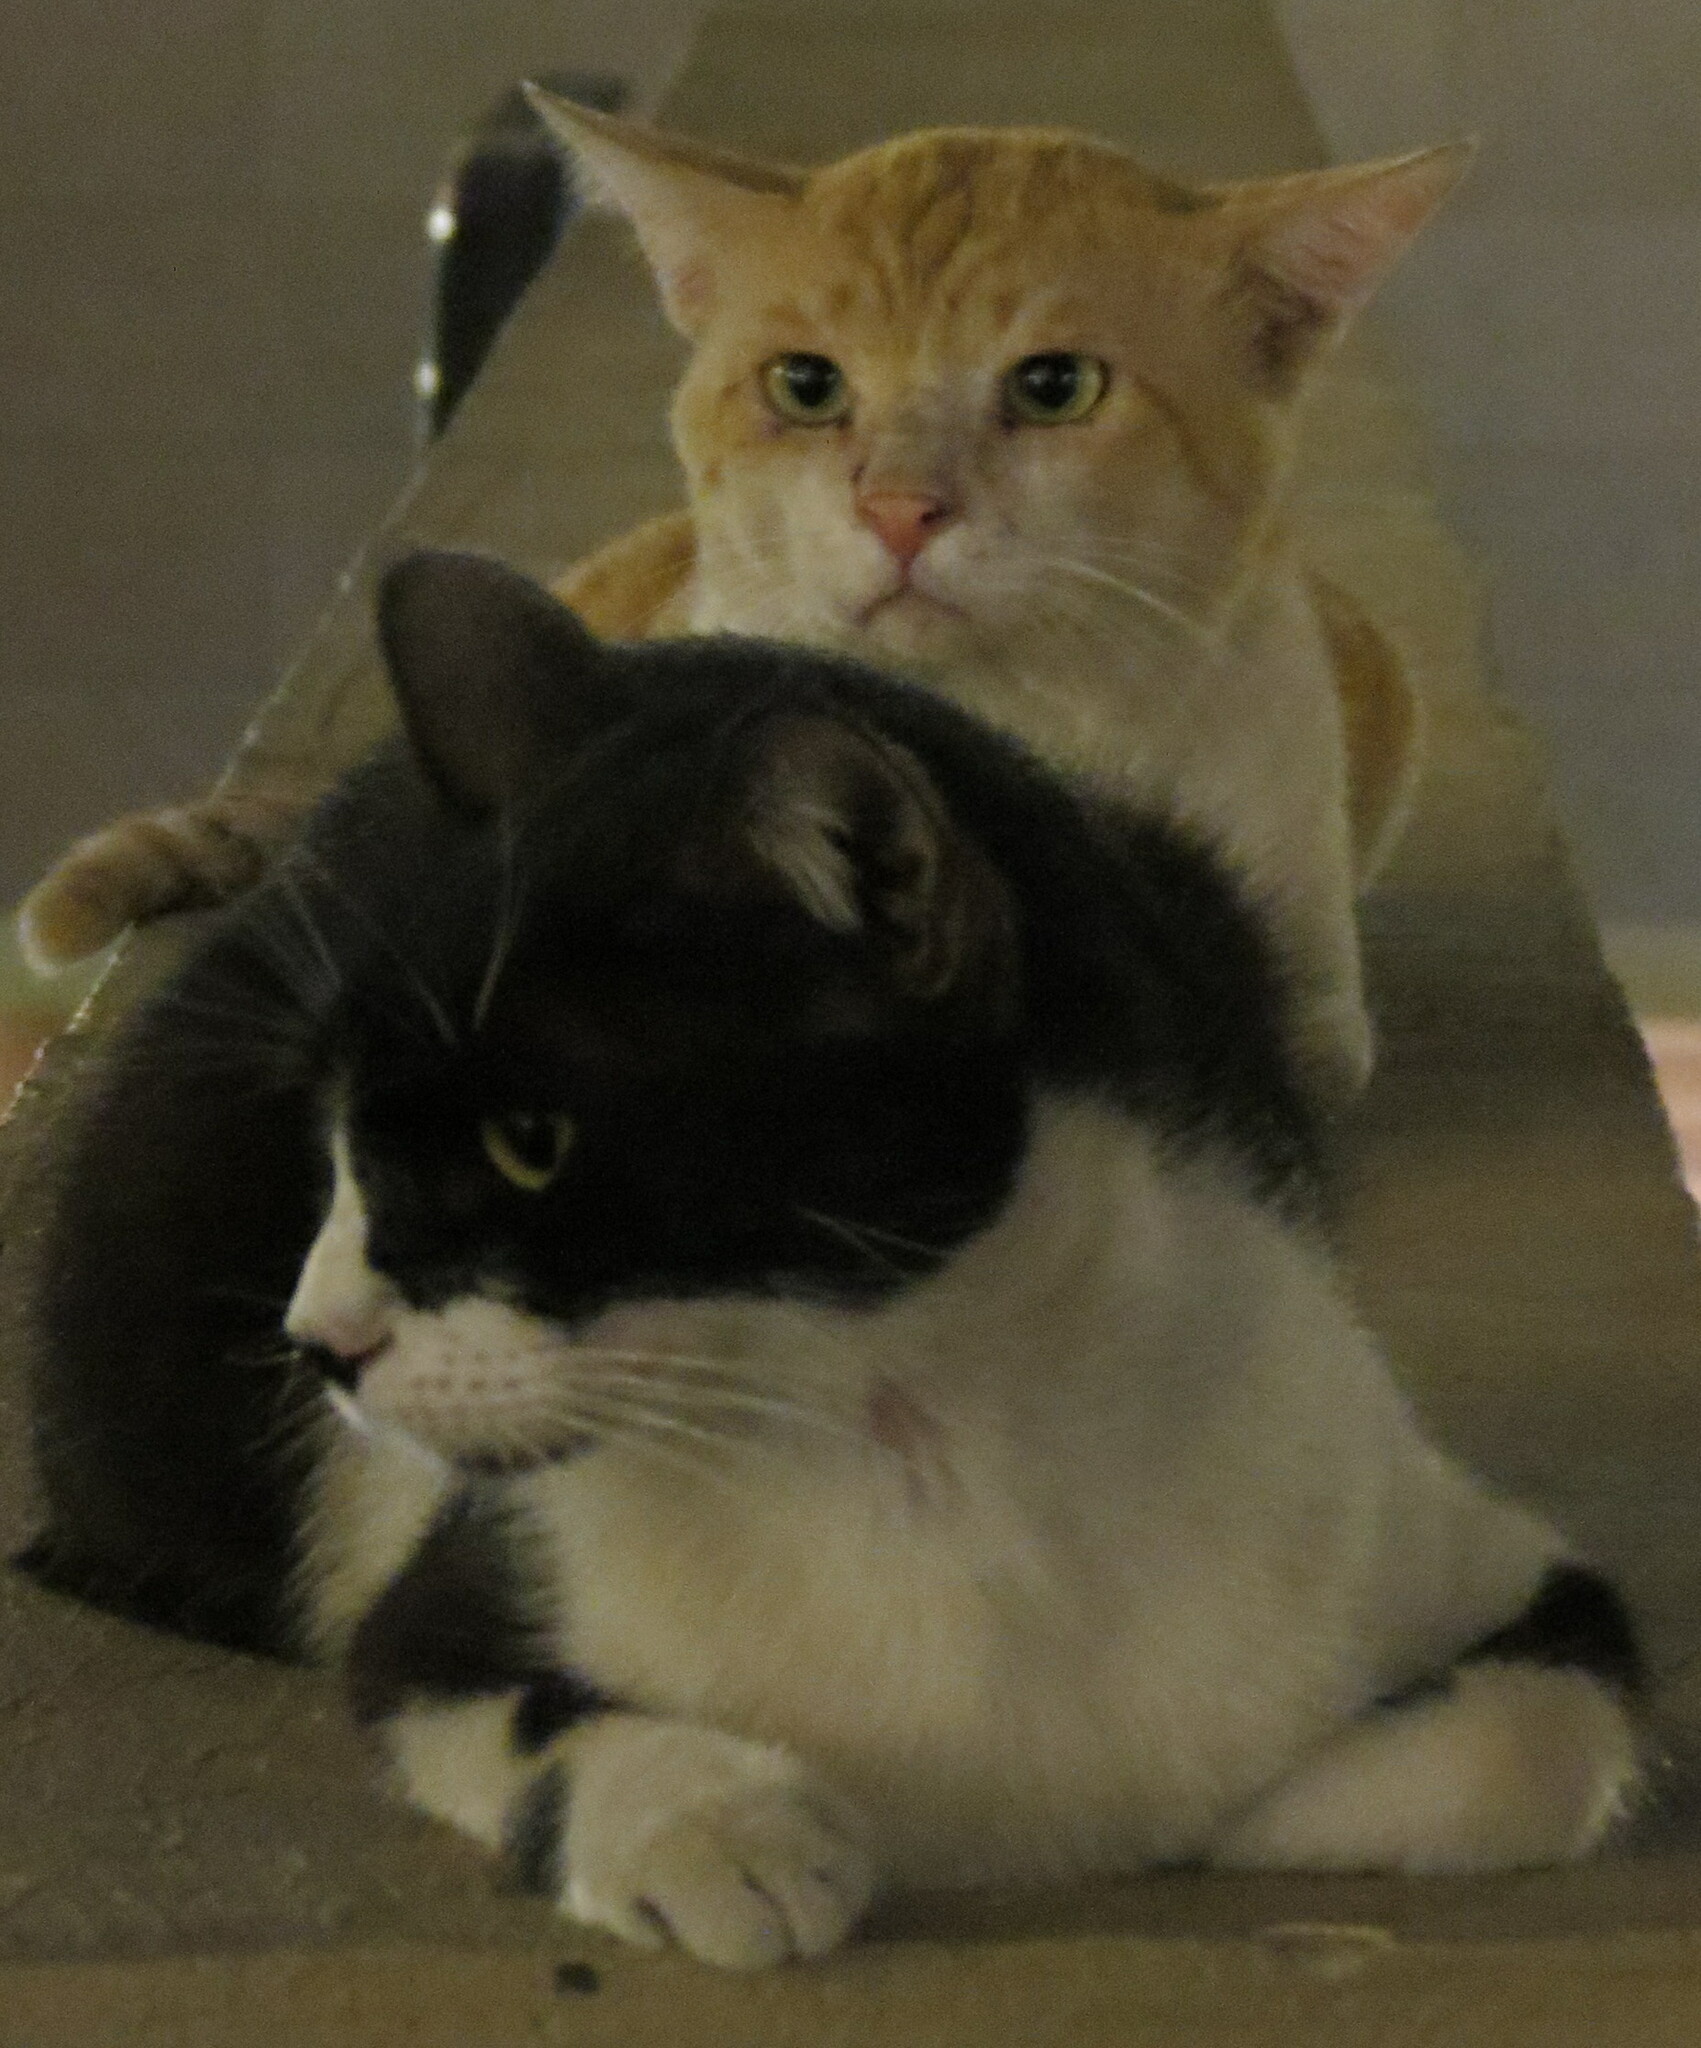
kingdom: Animalia
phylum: Chordata
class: Mammalia
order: Carnivora
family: Felidae
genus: Felis
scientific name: Felis catus
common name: Domestic cat
